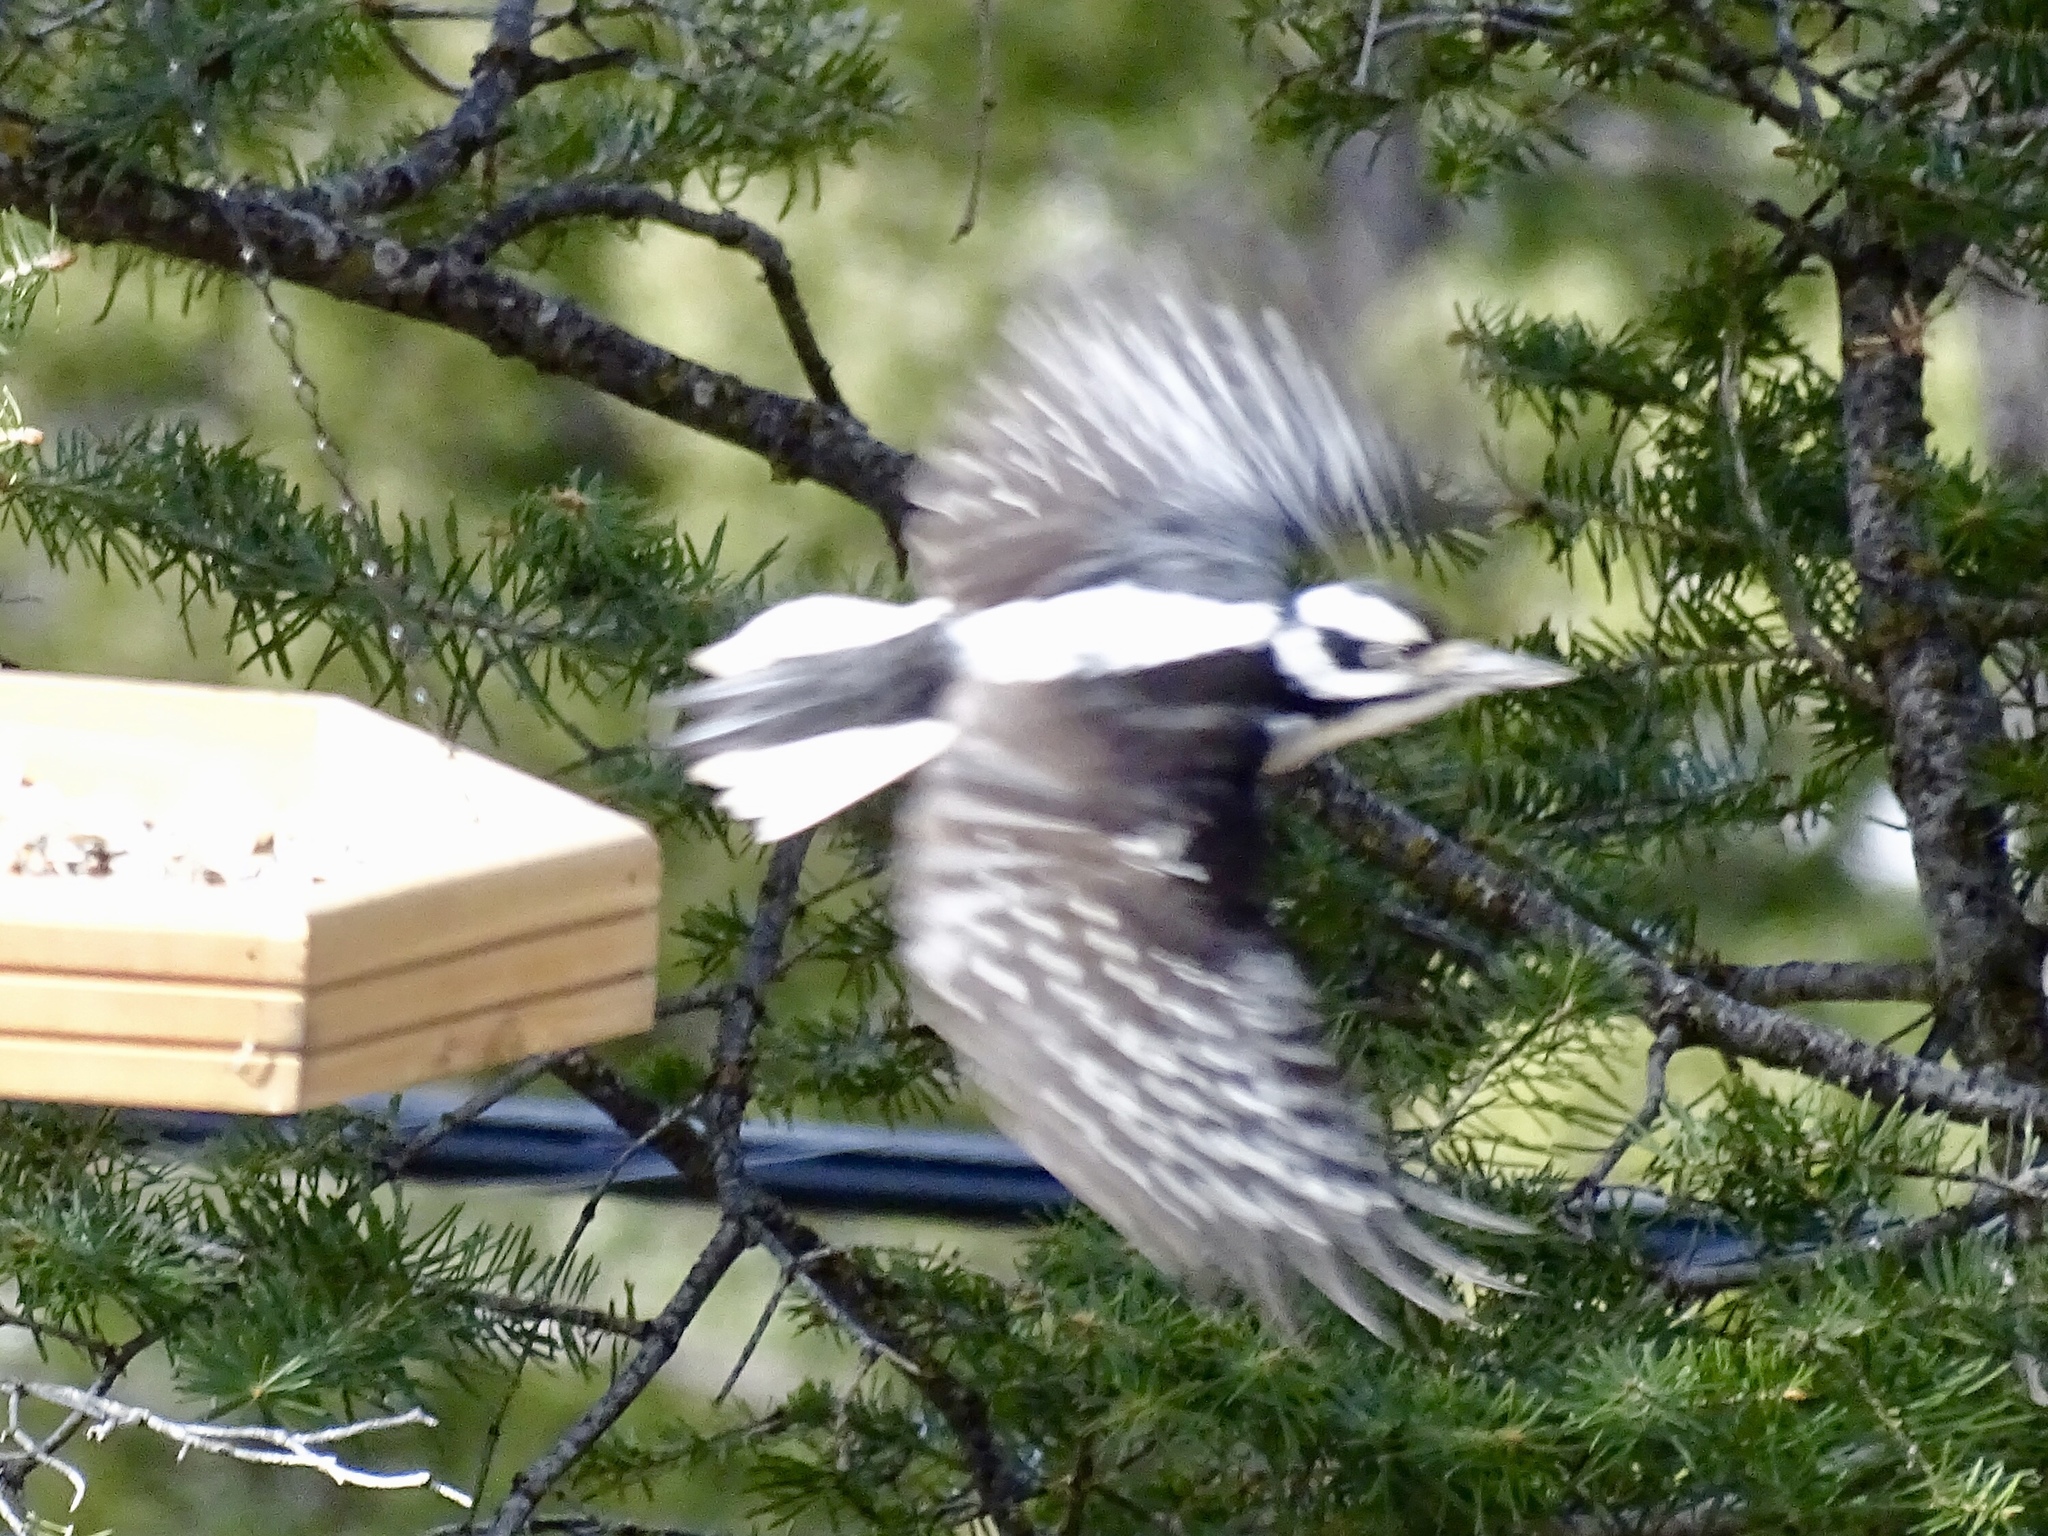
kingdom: Animalia
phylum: Chordata
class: Aves
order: Piciformes
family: Picidae
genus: Leuconotopicus
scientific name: Leuconotopicus villosus
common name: Hairy woodpecker
